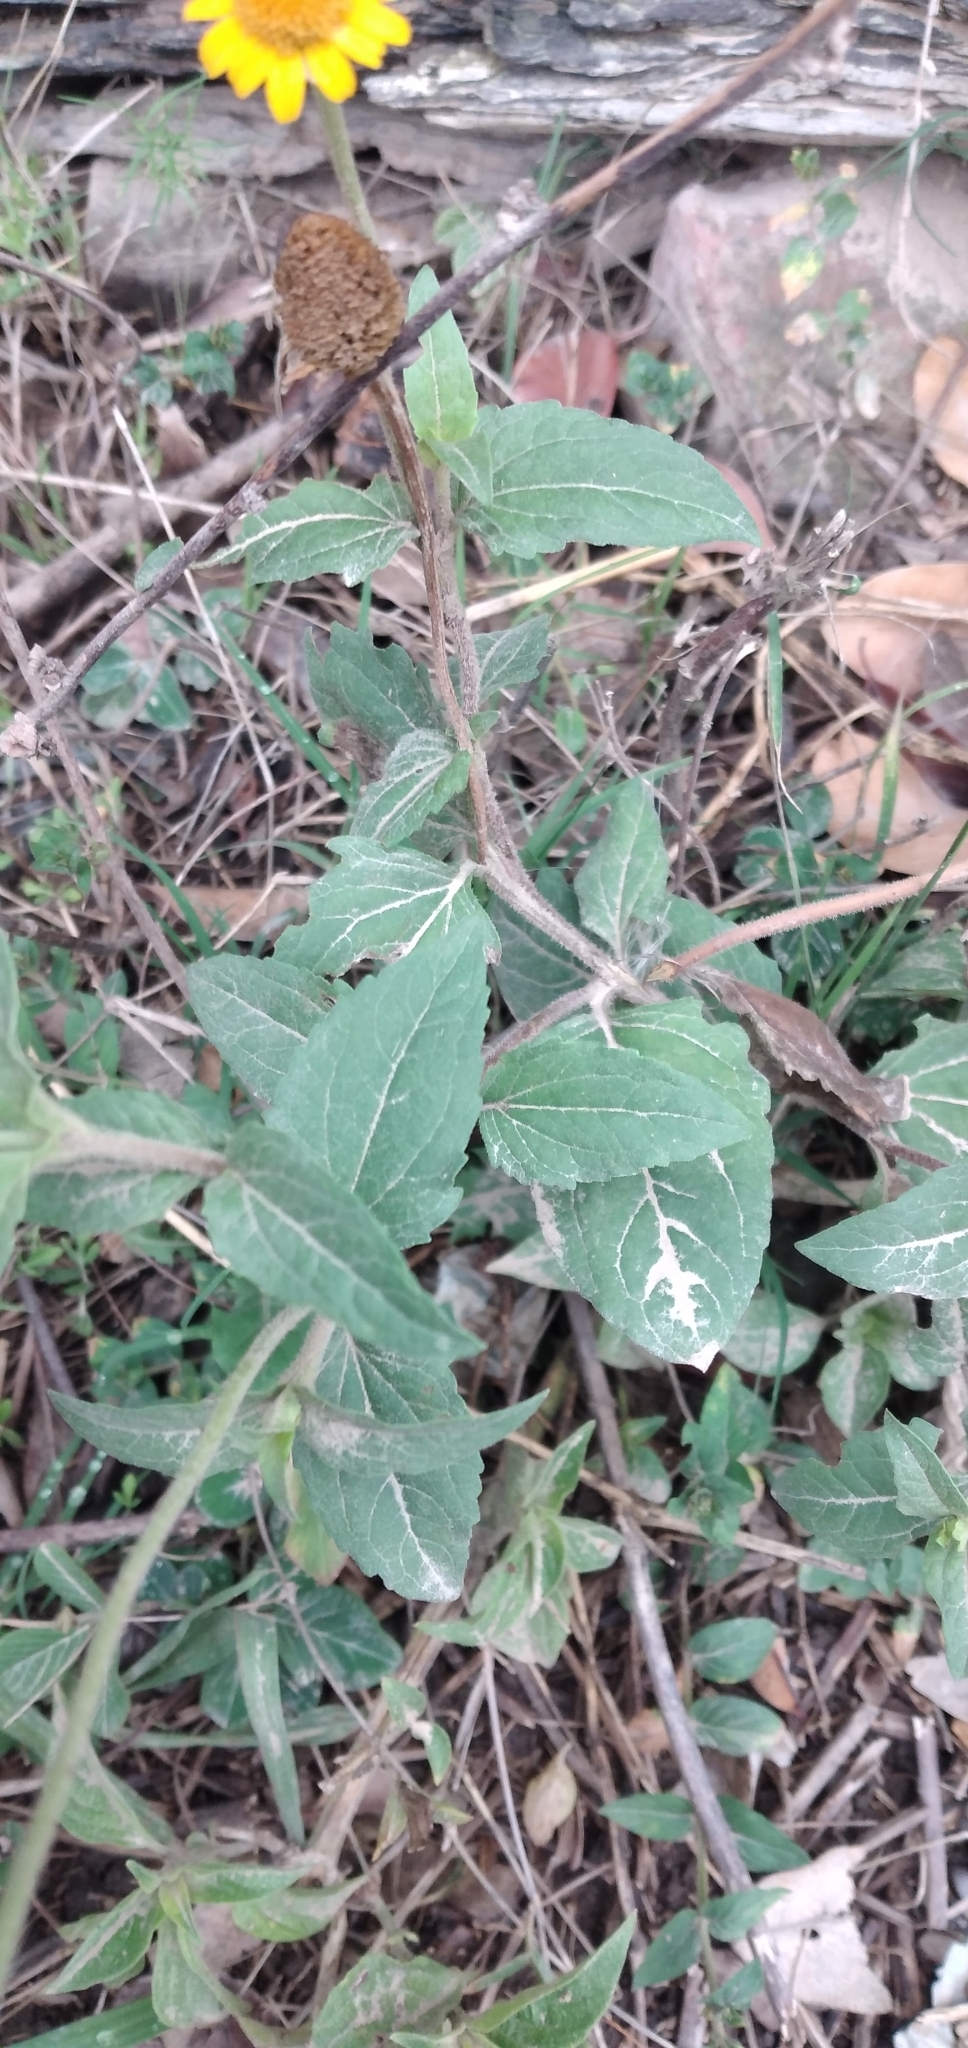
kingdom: Plantae
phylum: Tracheophyta
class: Magnoliopsida
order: Asterales
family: Asteraceae
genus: Acmella
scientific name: Acmella alpestris
